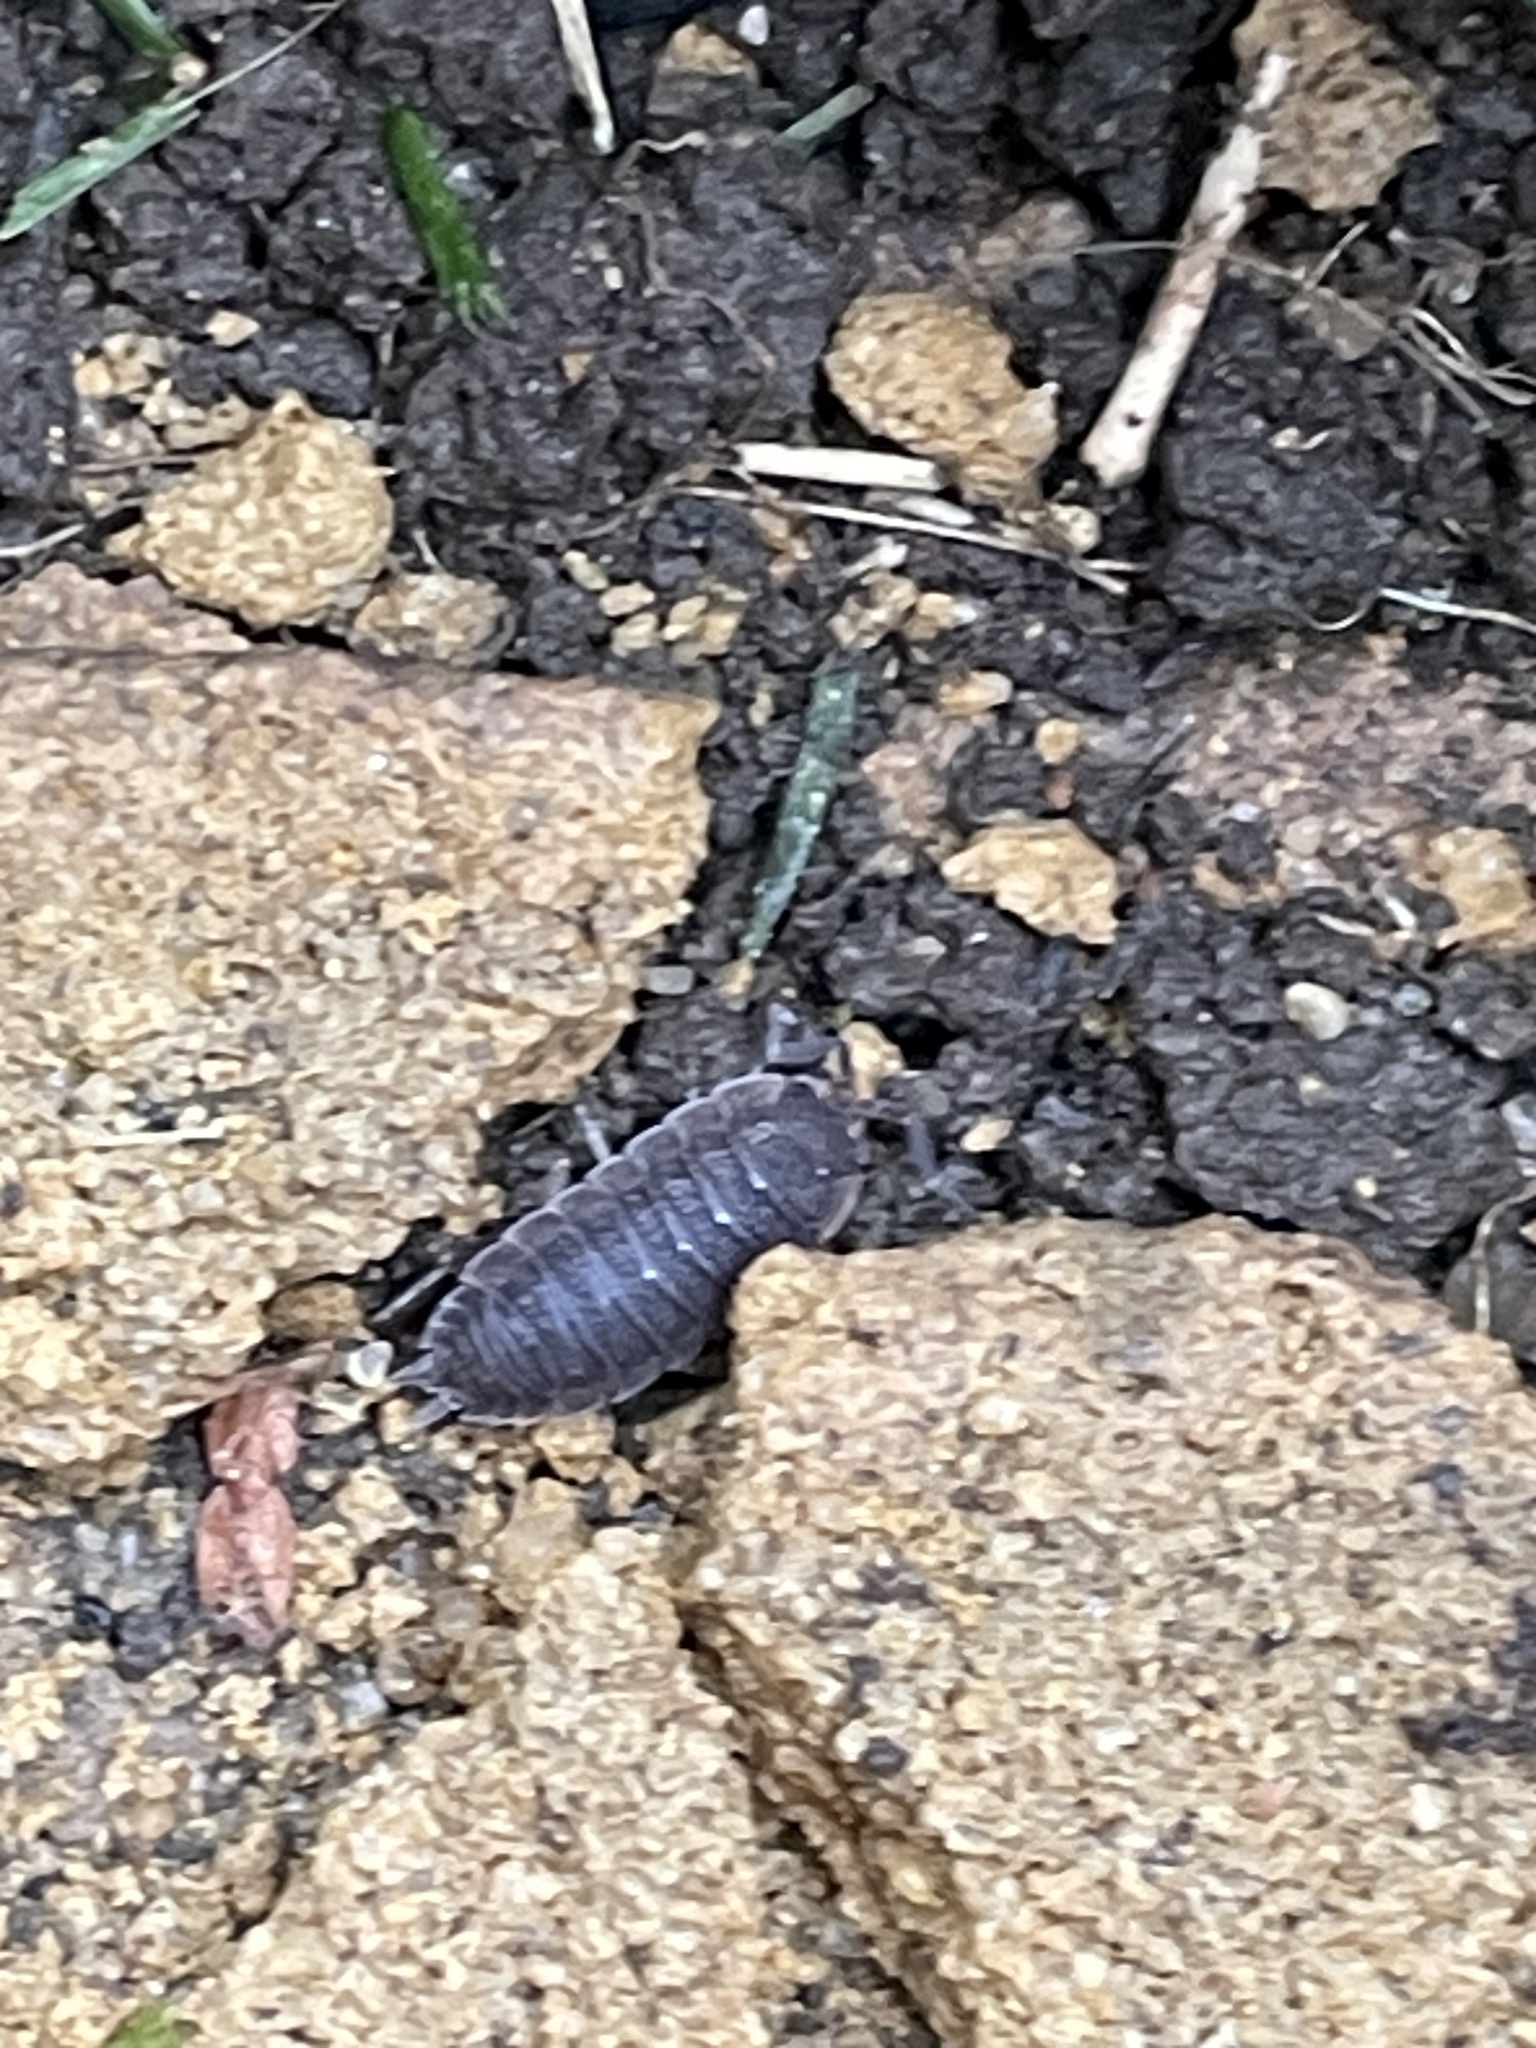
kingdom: Animalia
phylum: Arthropoda
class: Malacostraca
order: Isopoda
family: Porcellionidae
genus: Porcellio
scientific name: Porcellio scaber
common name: Common rough woodlouse
